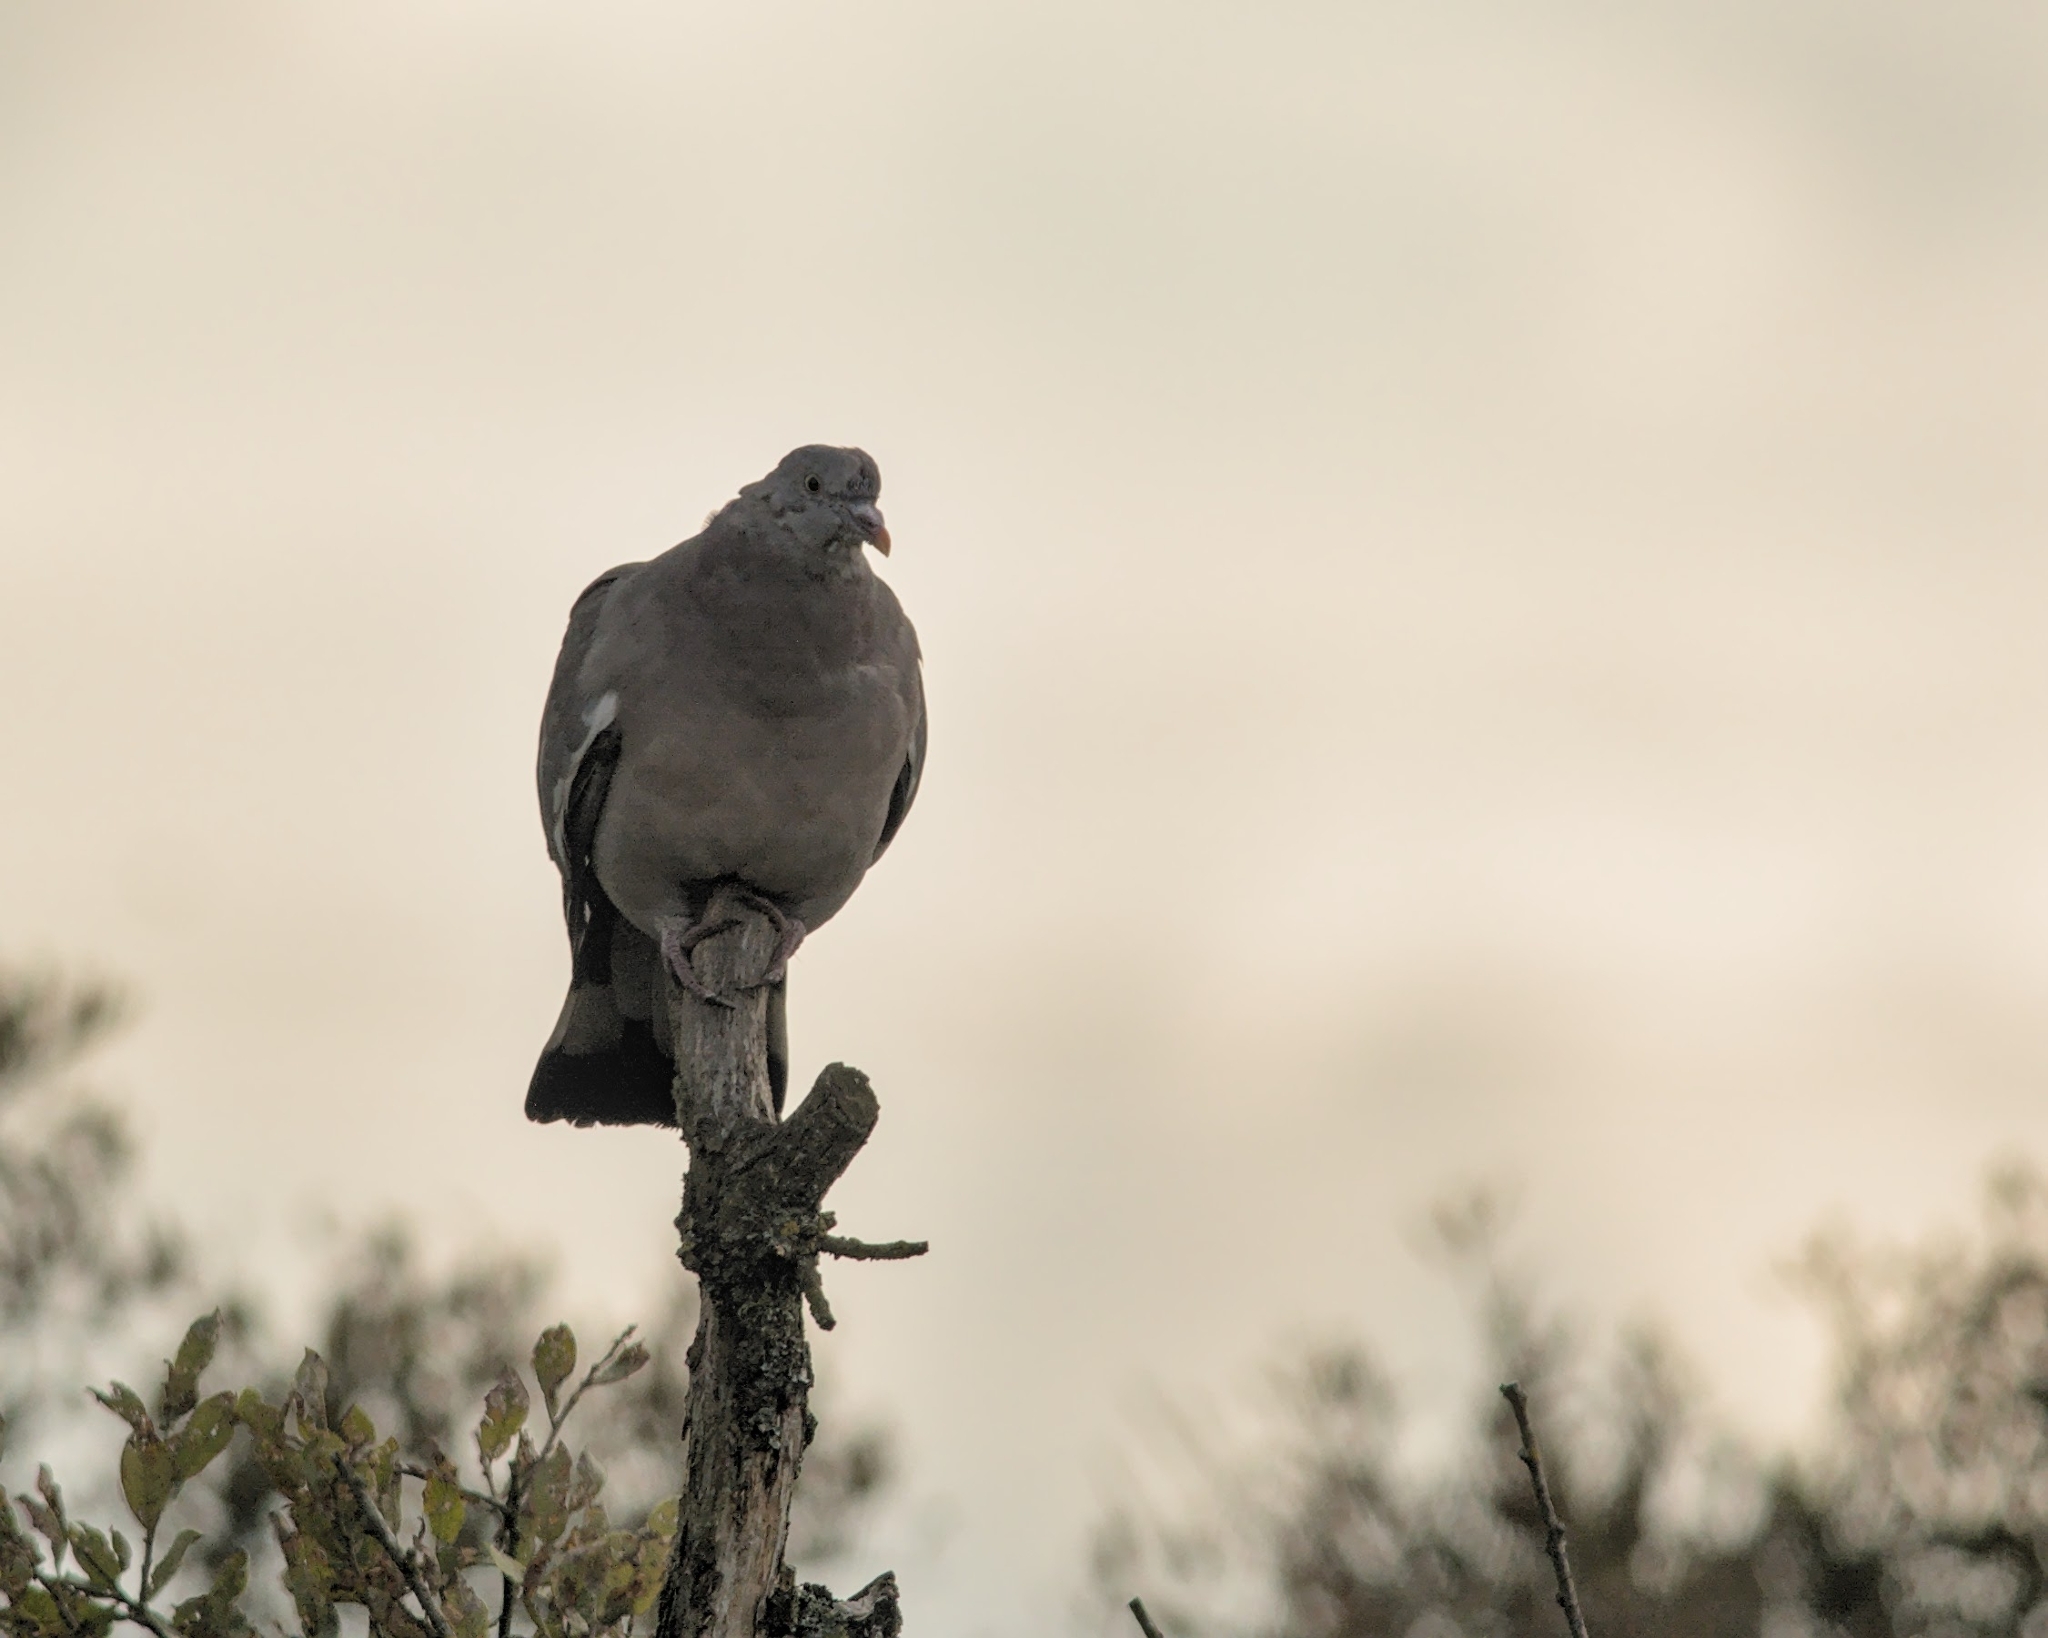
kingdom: Animalia
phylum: Chordata
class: Aves
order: Columbiformes
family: Columbidae
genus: Columba
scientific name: Columba palumbus
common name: Common wood pigeon
